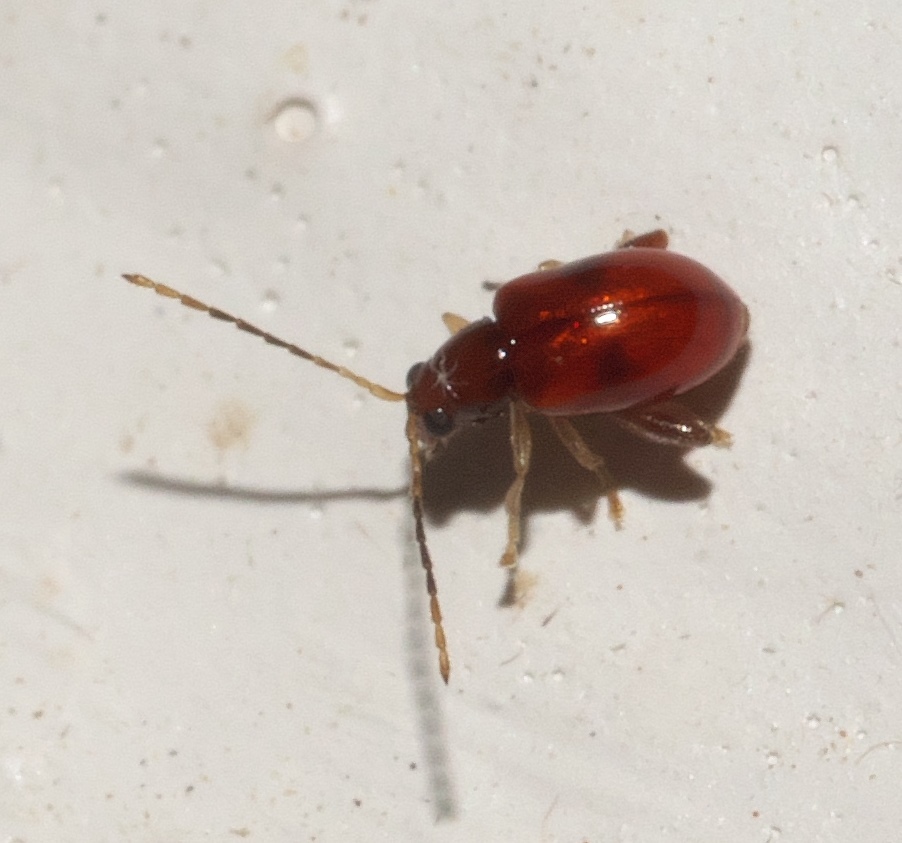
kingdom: Animalia
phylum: Arthropoda
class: Insecta
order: Coleoptera
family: Chrysomelidae
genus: Longitarsus
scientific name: Longitarsus varicornis
